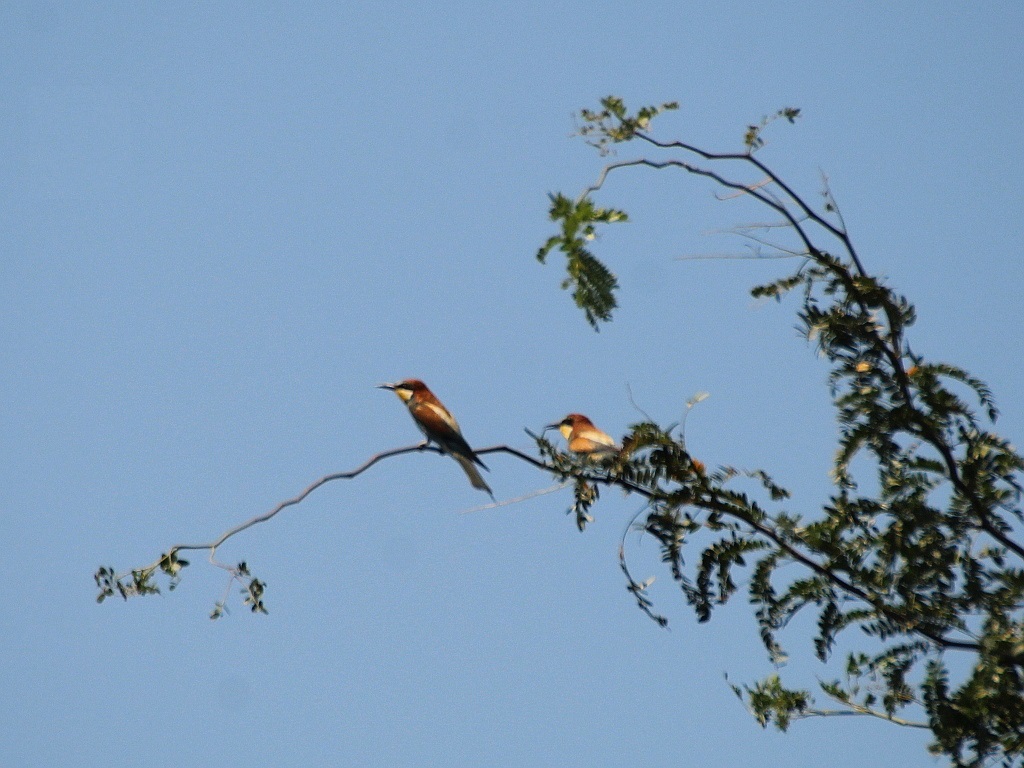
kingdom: Animalia
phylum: Chordata
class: Aves
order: Coraciiformes
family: Meropidae
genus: Merops
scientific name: Merops apiaster
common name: European bee-eater
